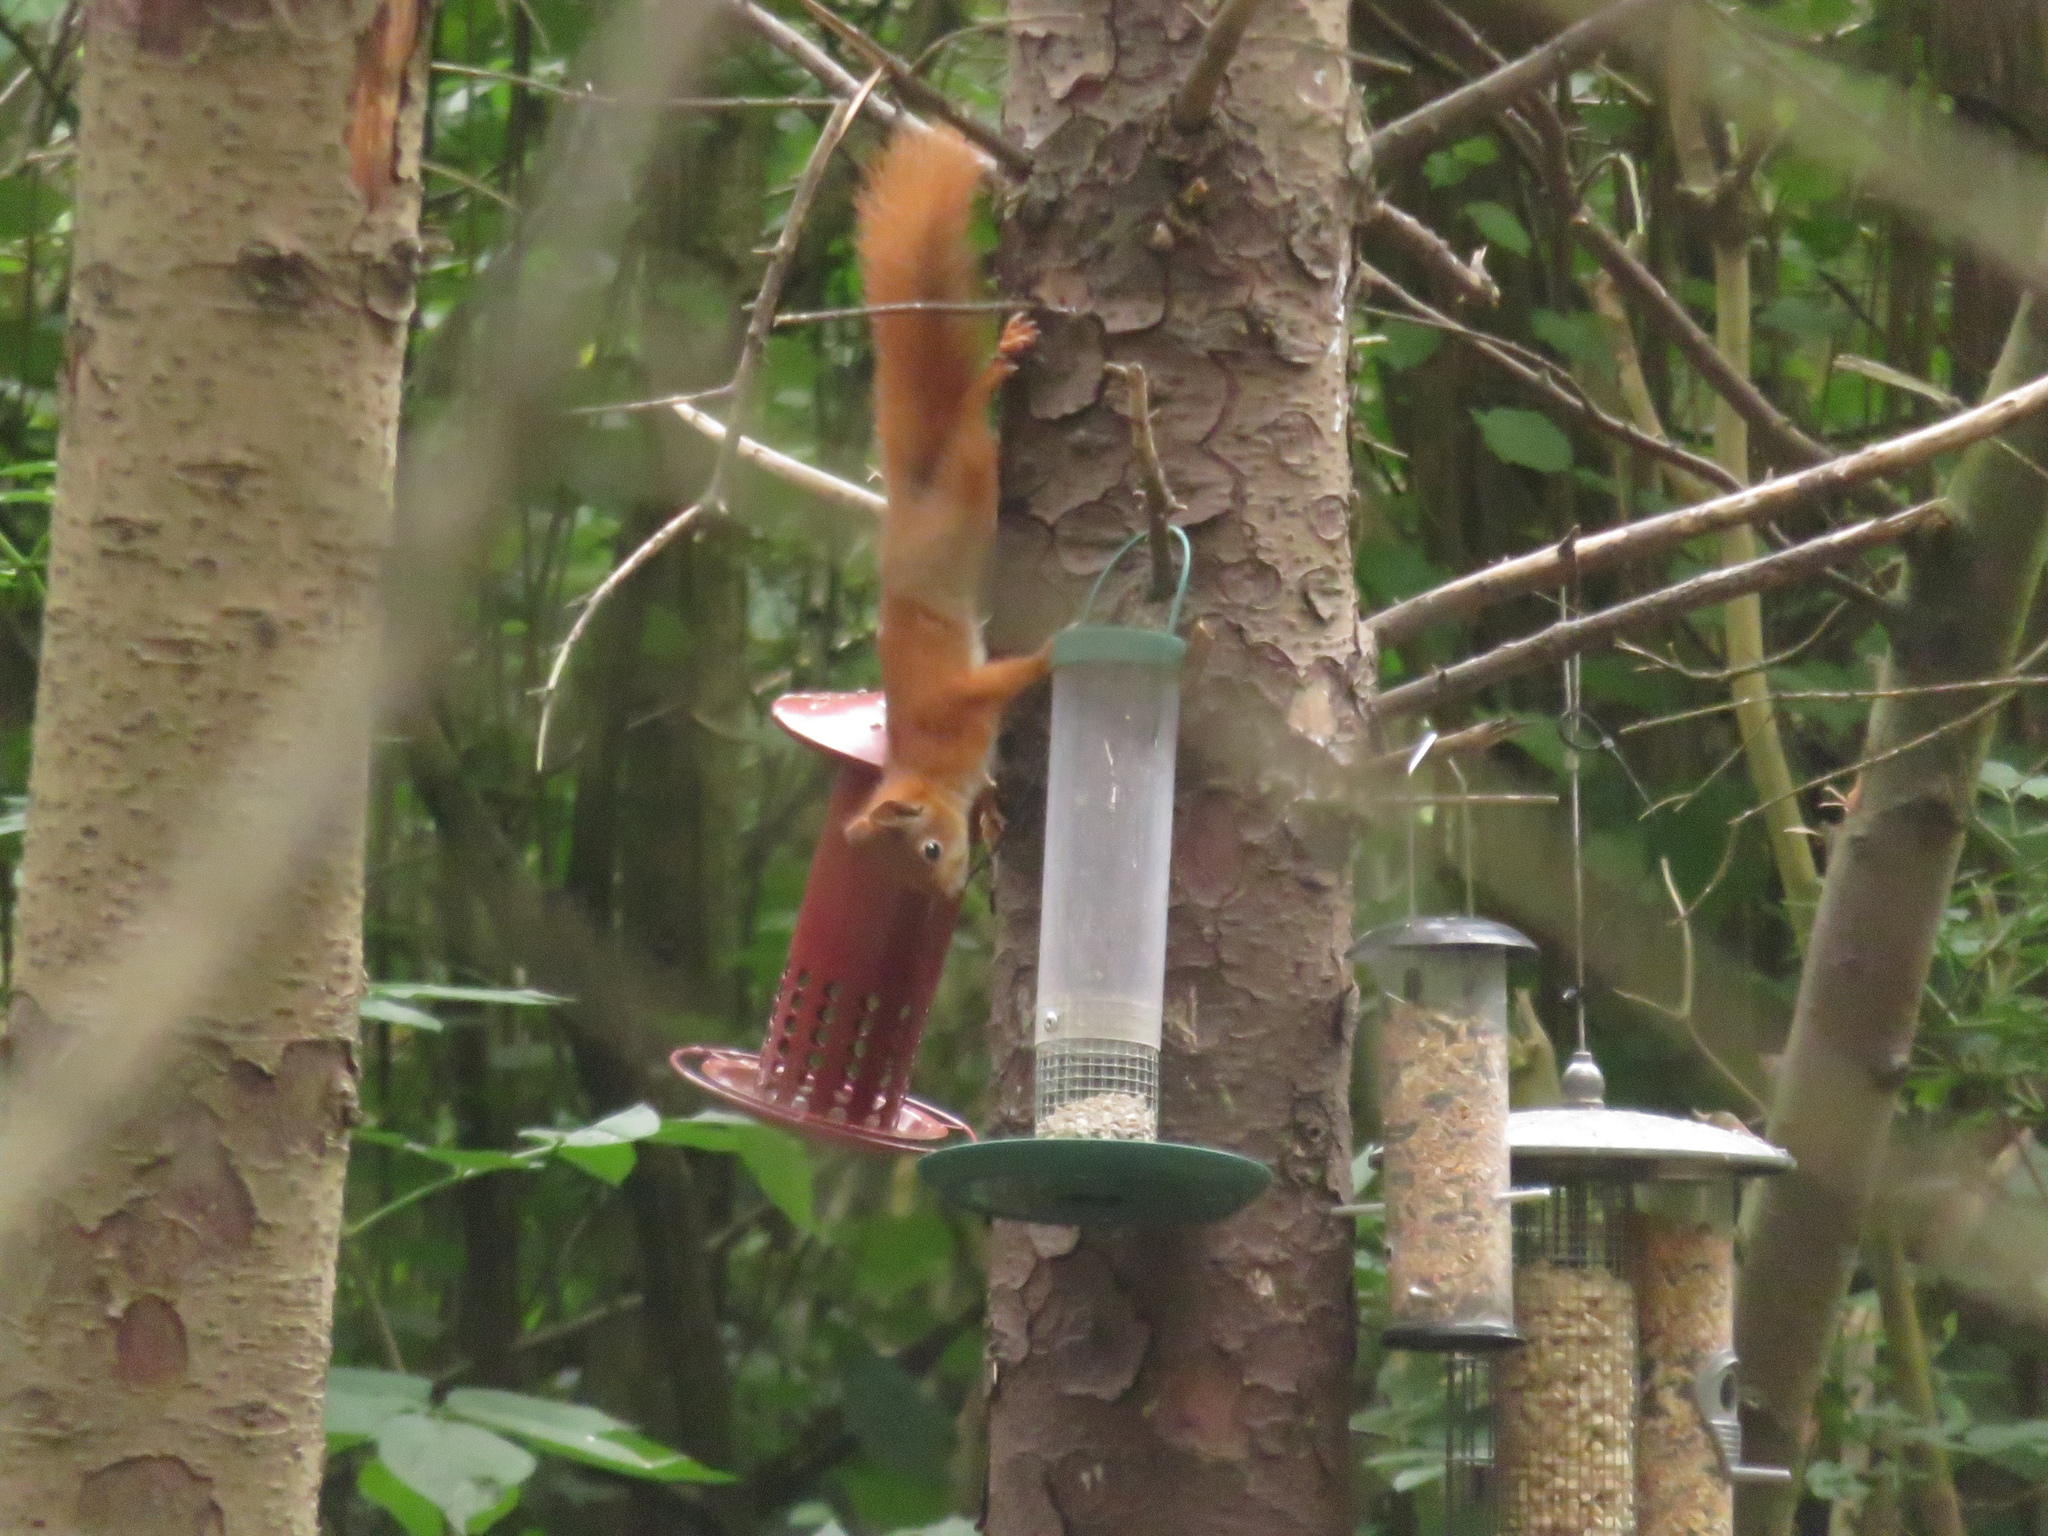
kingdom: Animalia
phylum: Chordata
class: Mammalia
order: Rodentia
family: Sciuridae
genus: Sciurus
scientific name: Sciurus vulgaris
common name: Eurasian red squirrel
